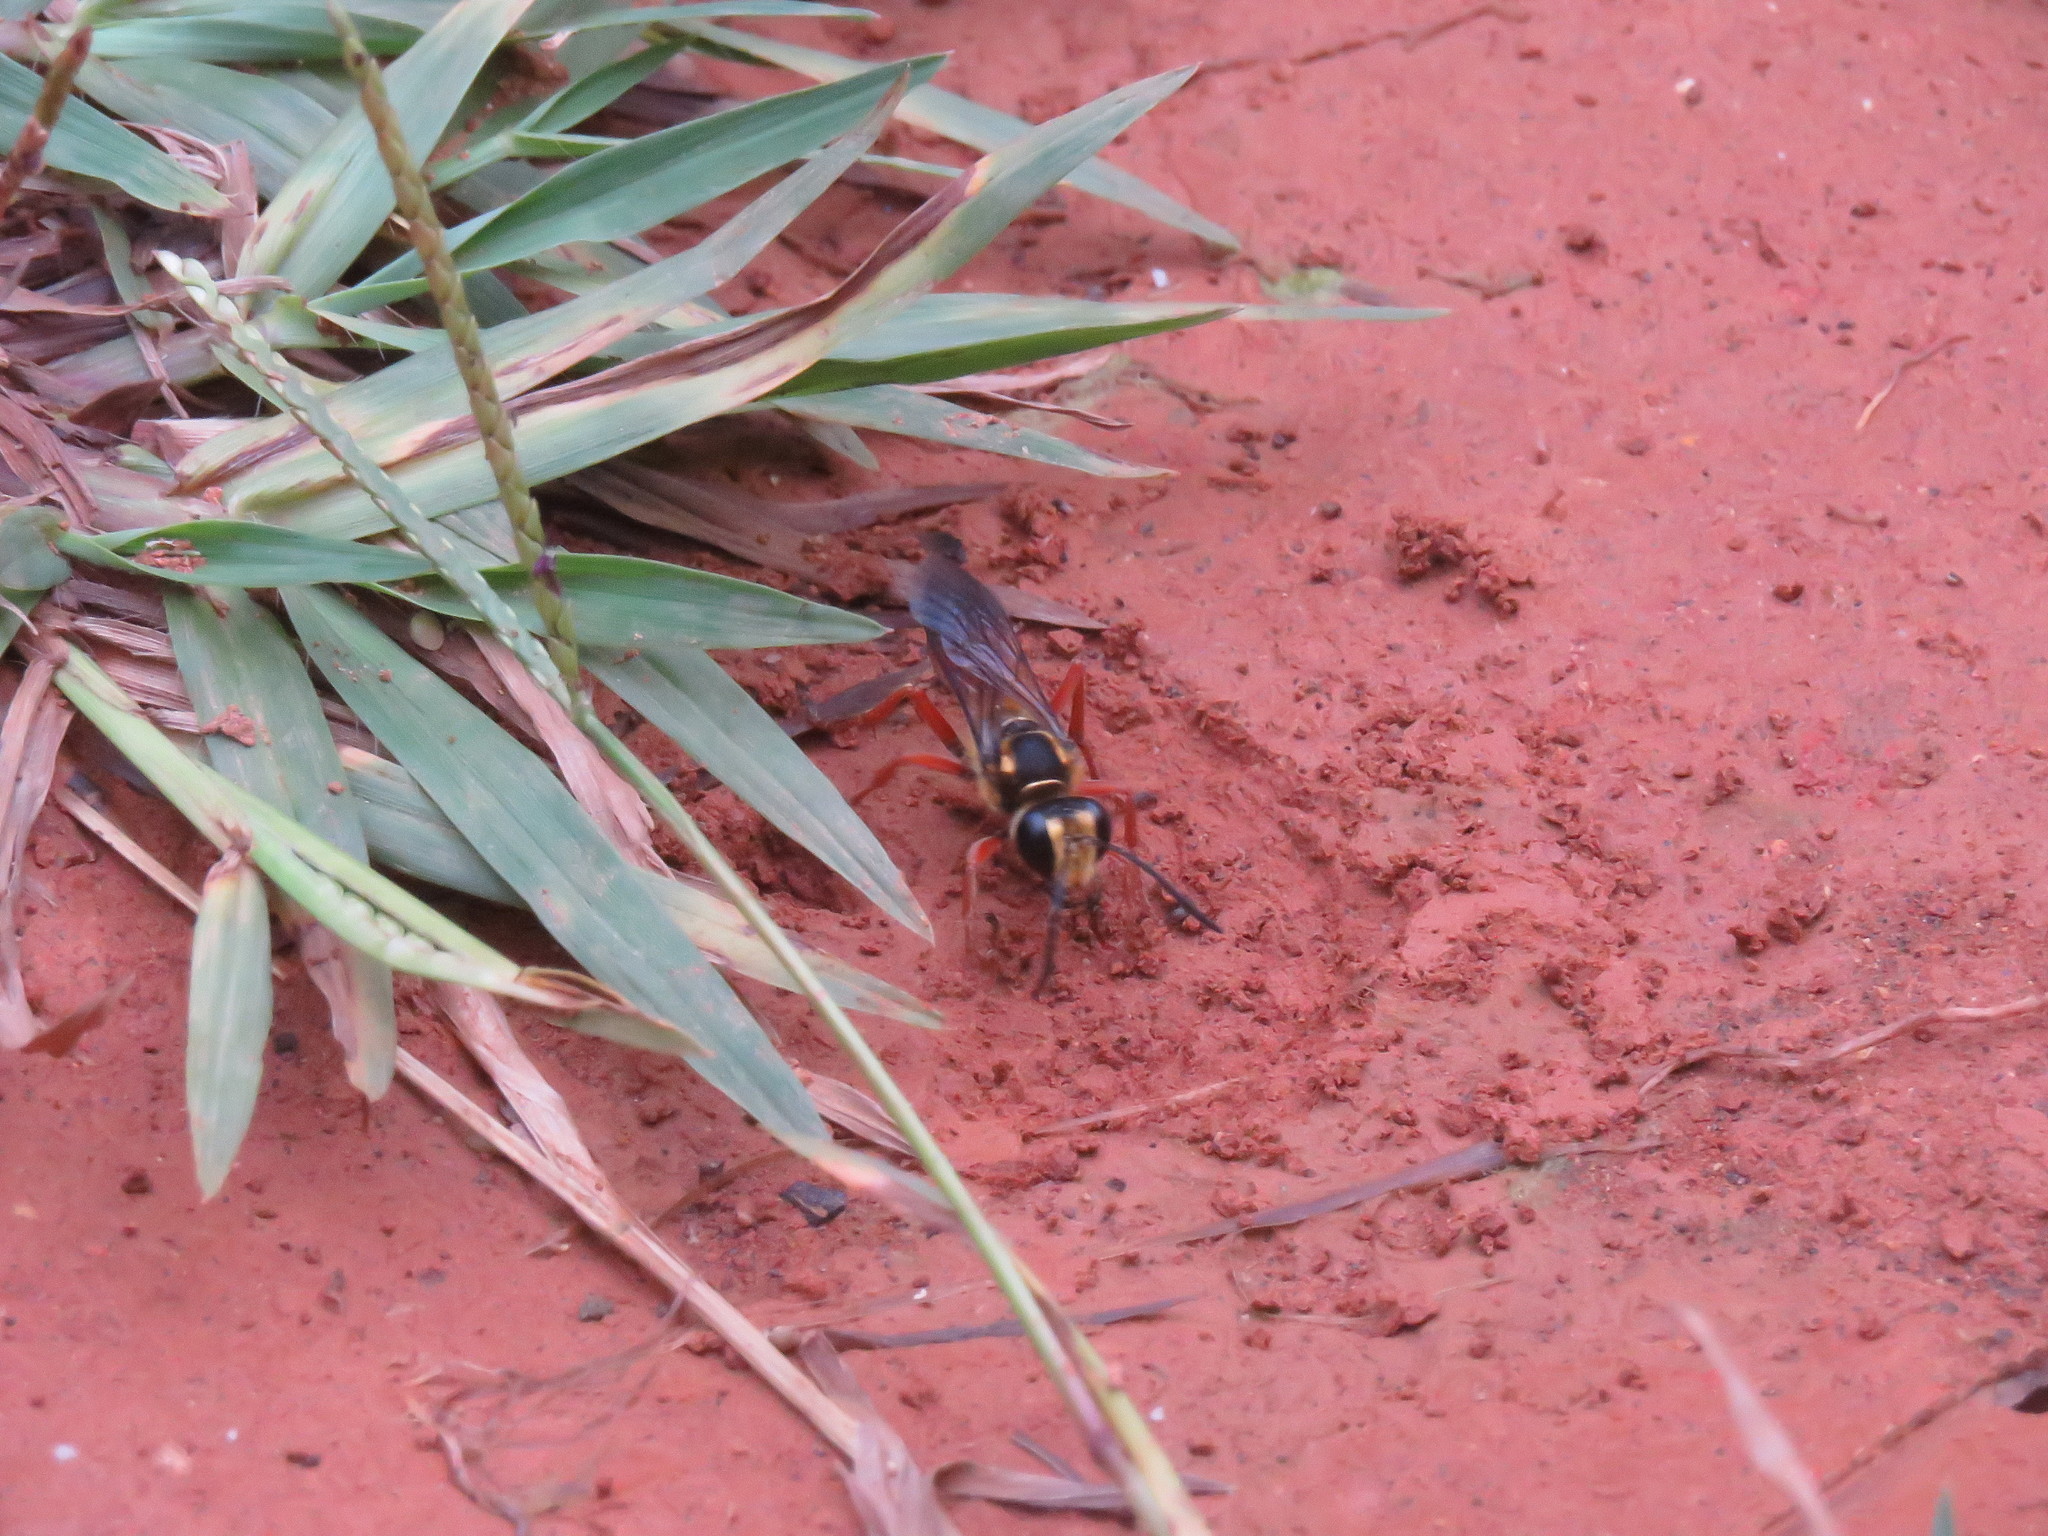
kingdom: Animalia
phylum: Arthropoda
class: Insecta
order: Hymenoptera
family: Sphecidae
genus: Sphex
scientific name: Sphex dorsalis
